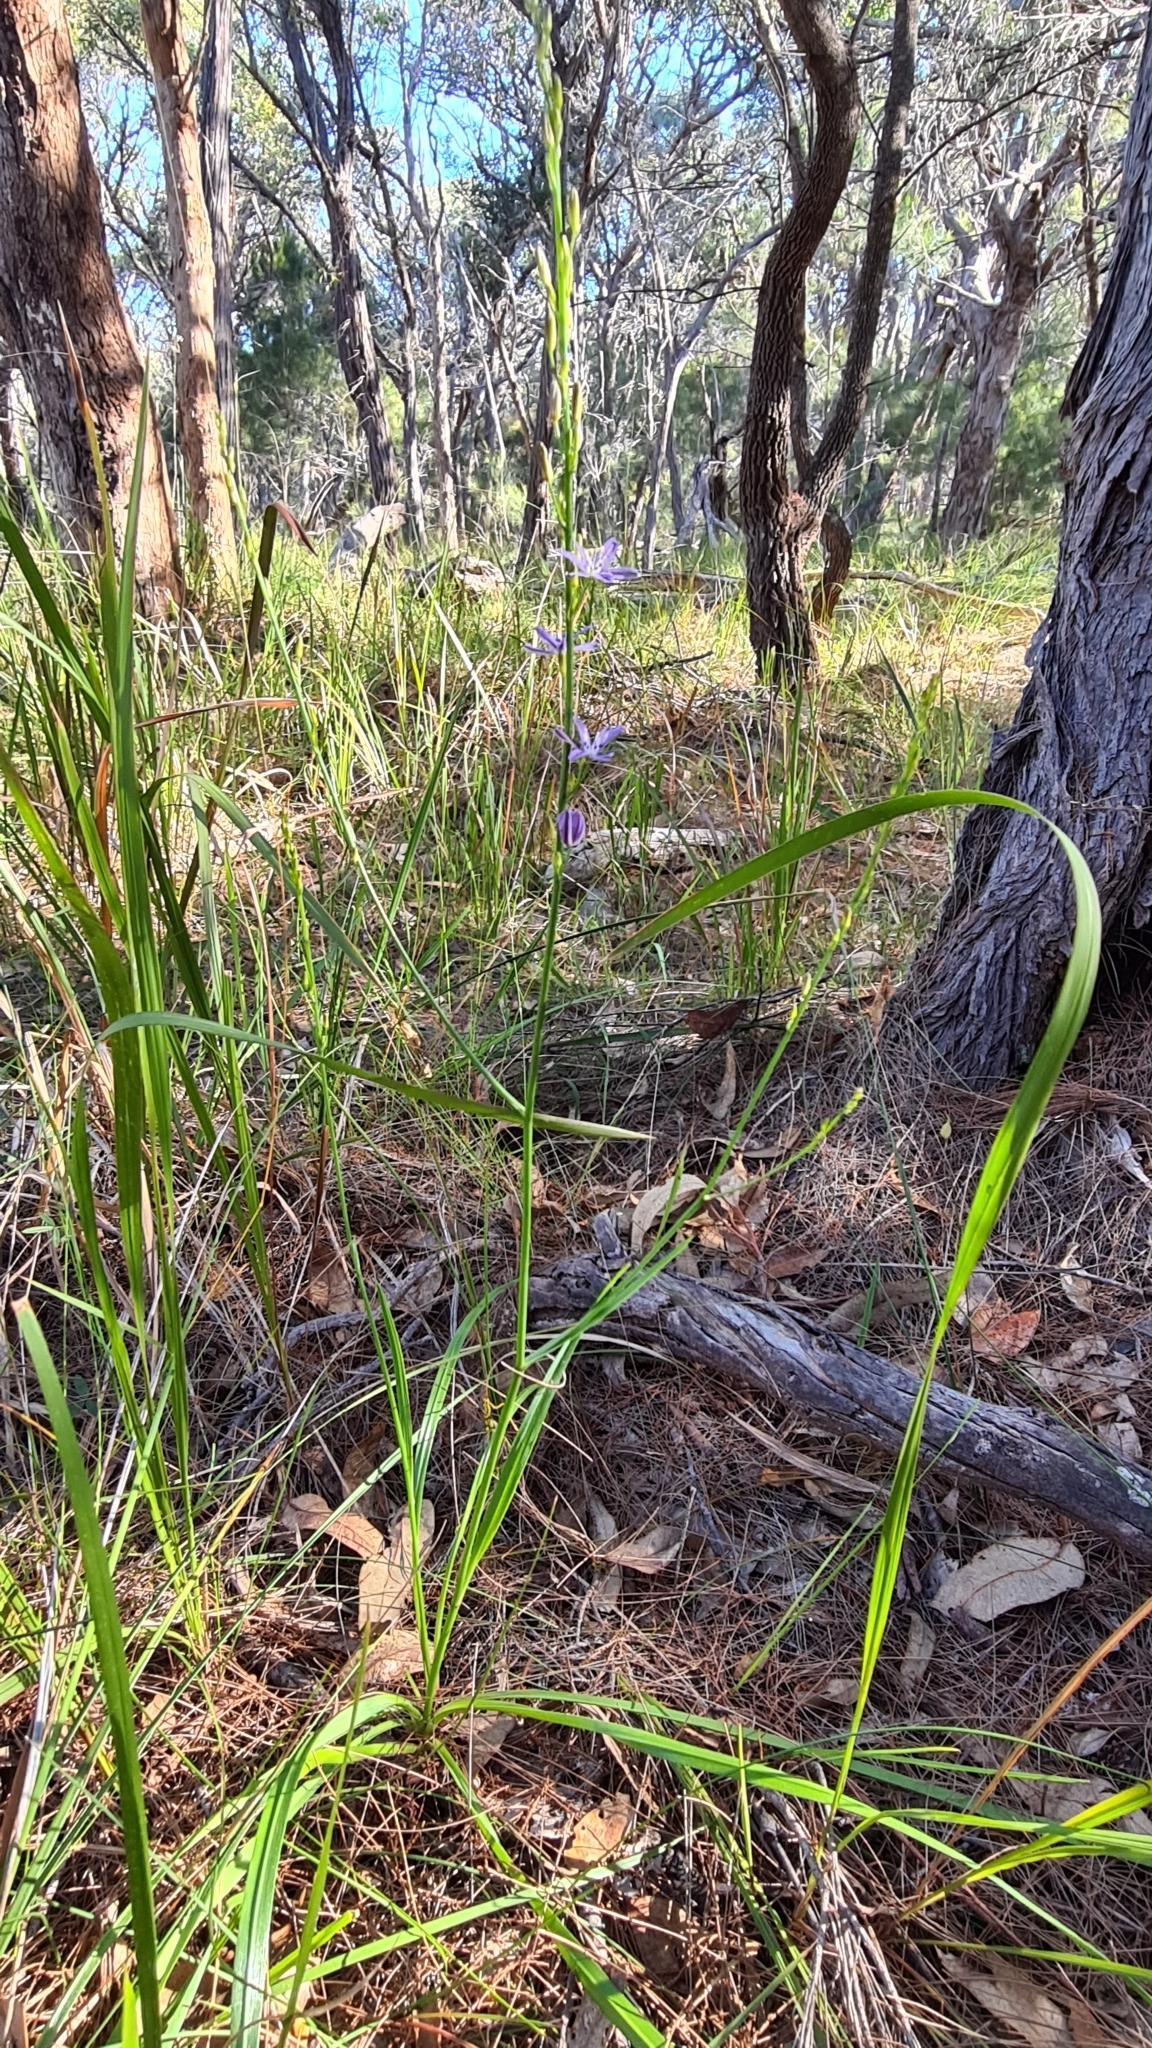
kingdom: Plantae
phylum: Tracheophyta
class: Liliopsida
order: Asparagales
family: Asphodelaceae
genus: Caesia
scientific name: Caesia parviflora
